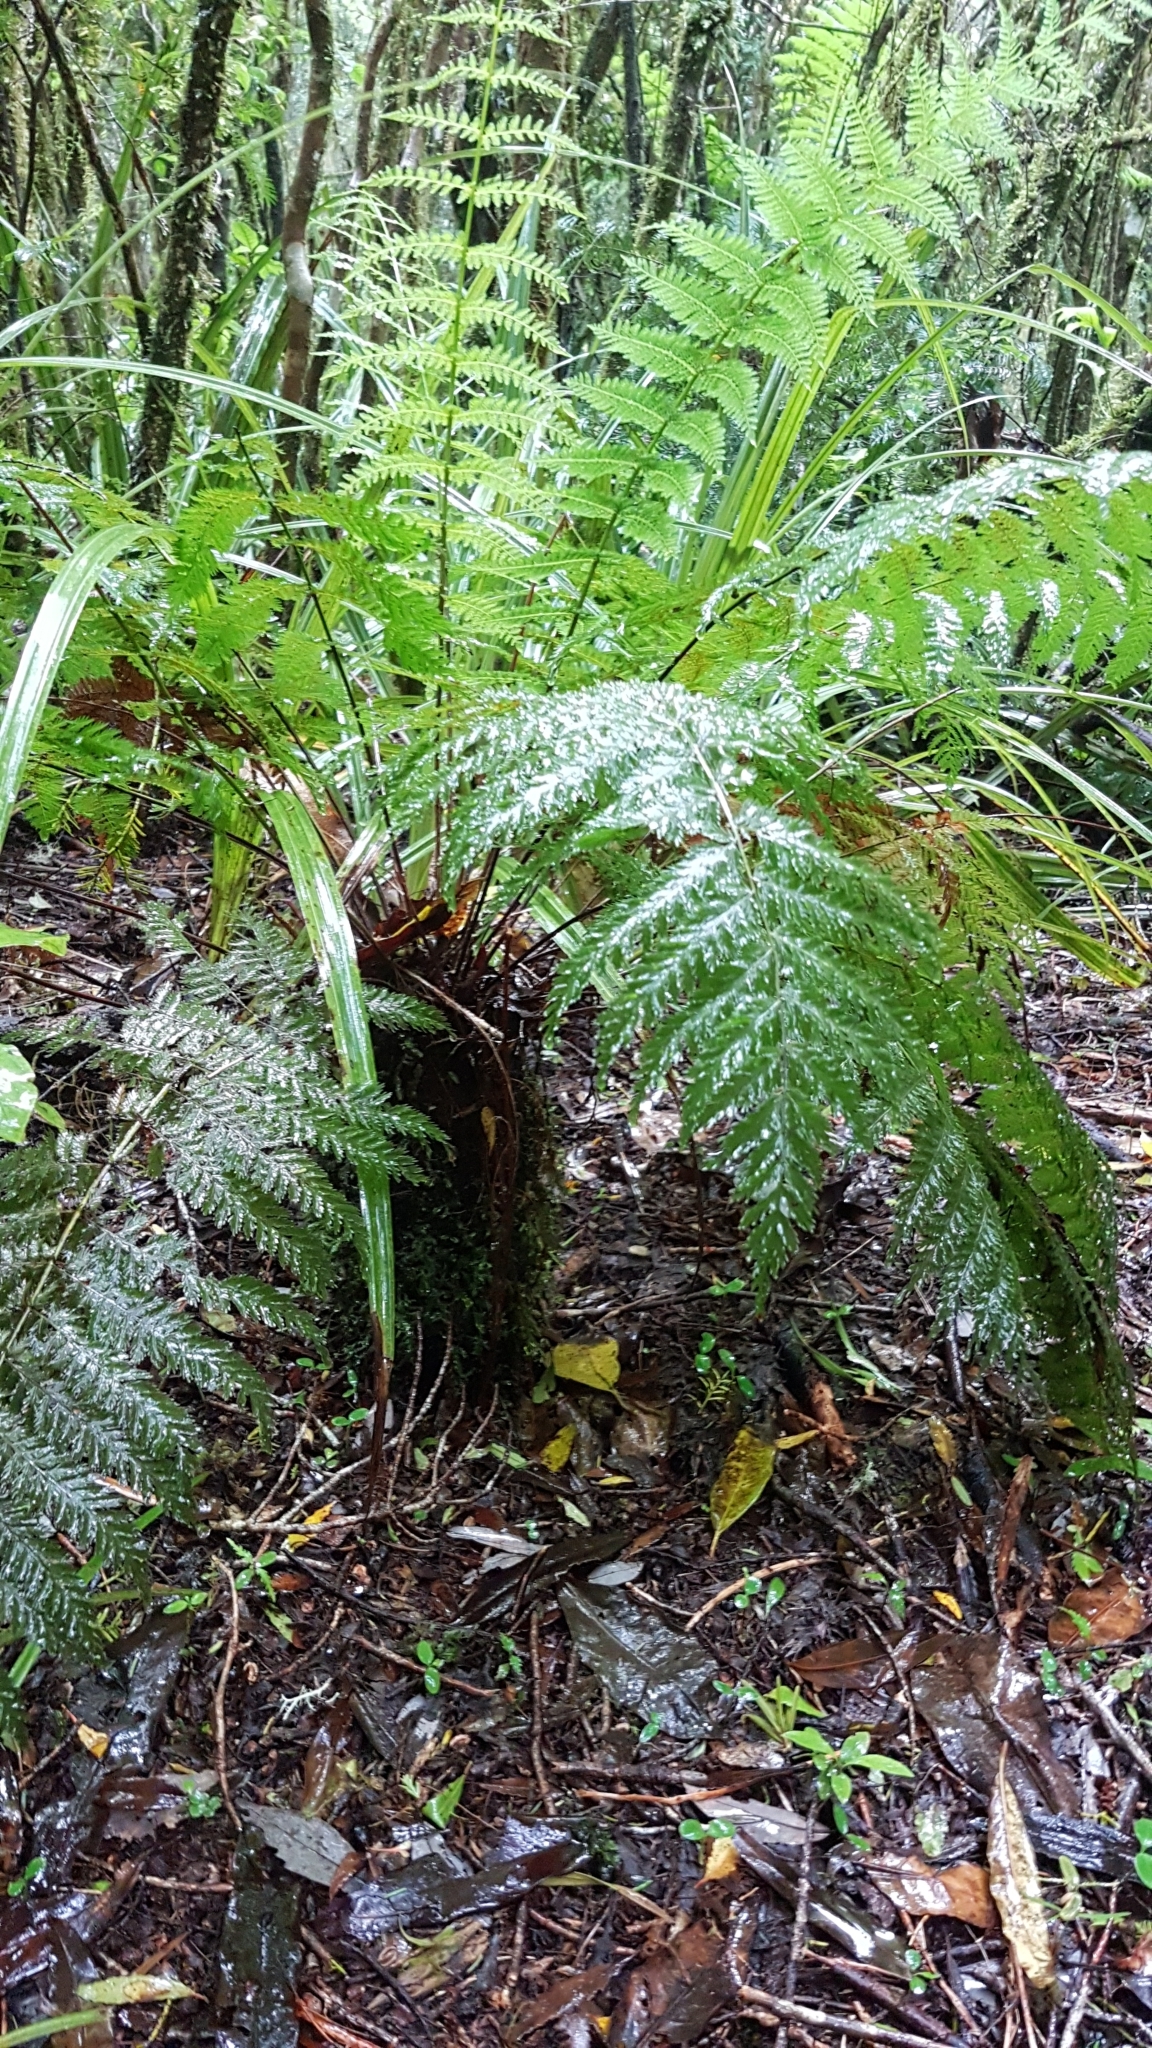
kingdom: Plantae
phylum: Tracheophyta
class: Polypodiopsida
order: Osmundales
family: Osmundaceae
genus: Leptopteris
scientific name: Leptopteris hymenophylloides
